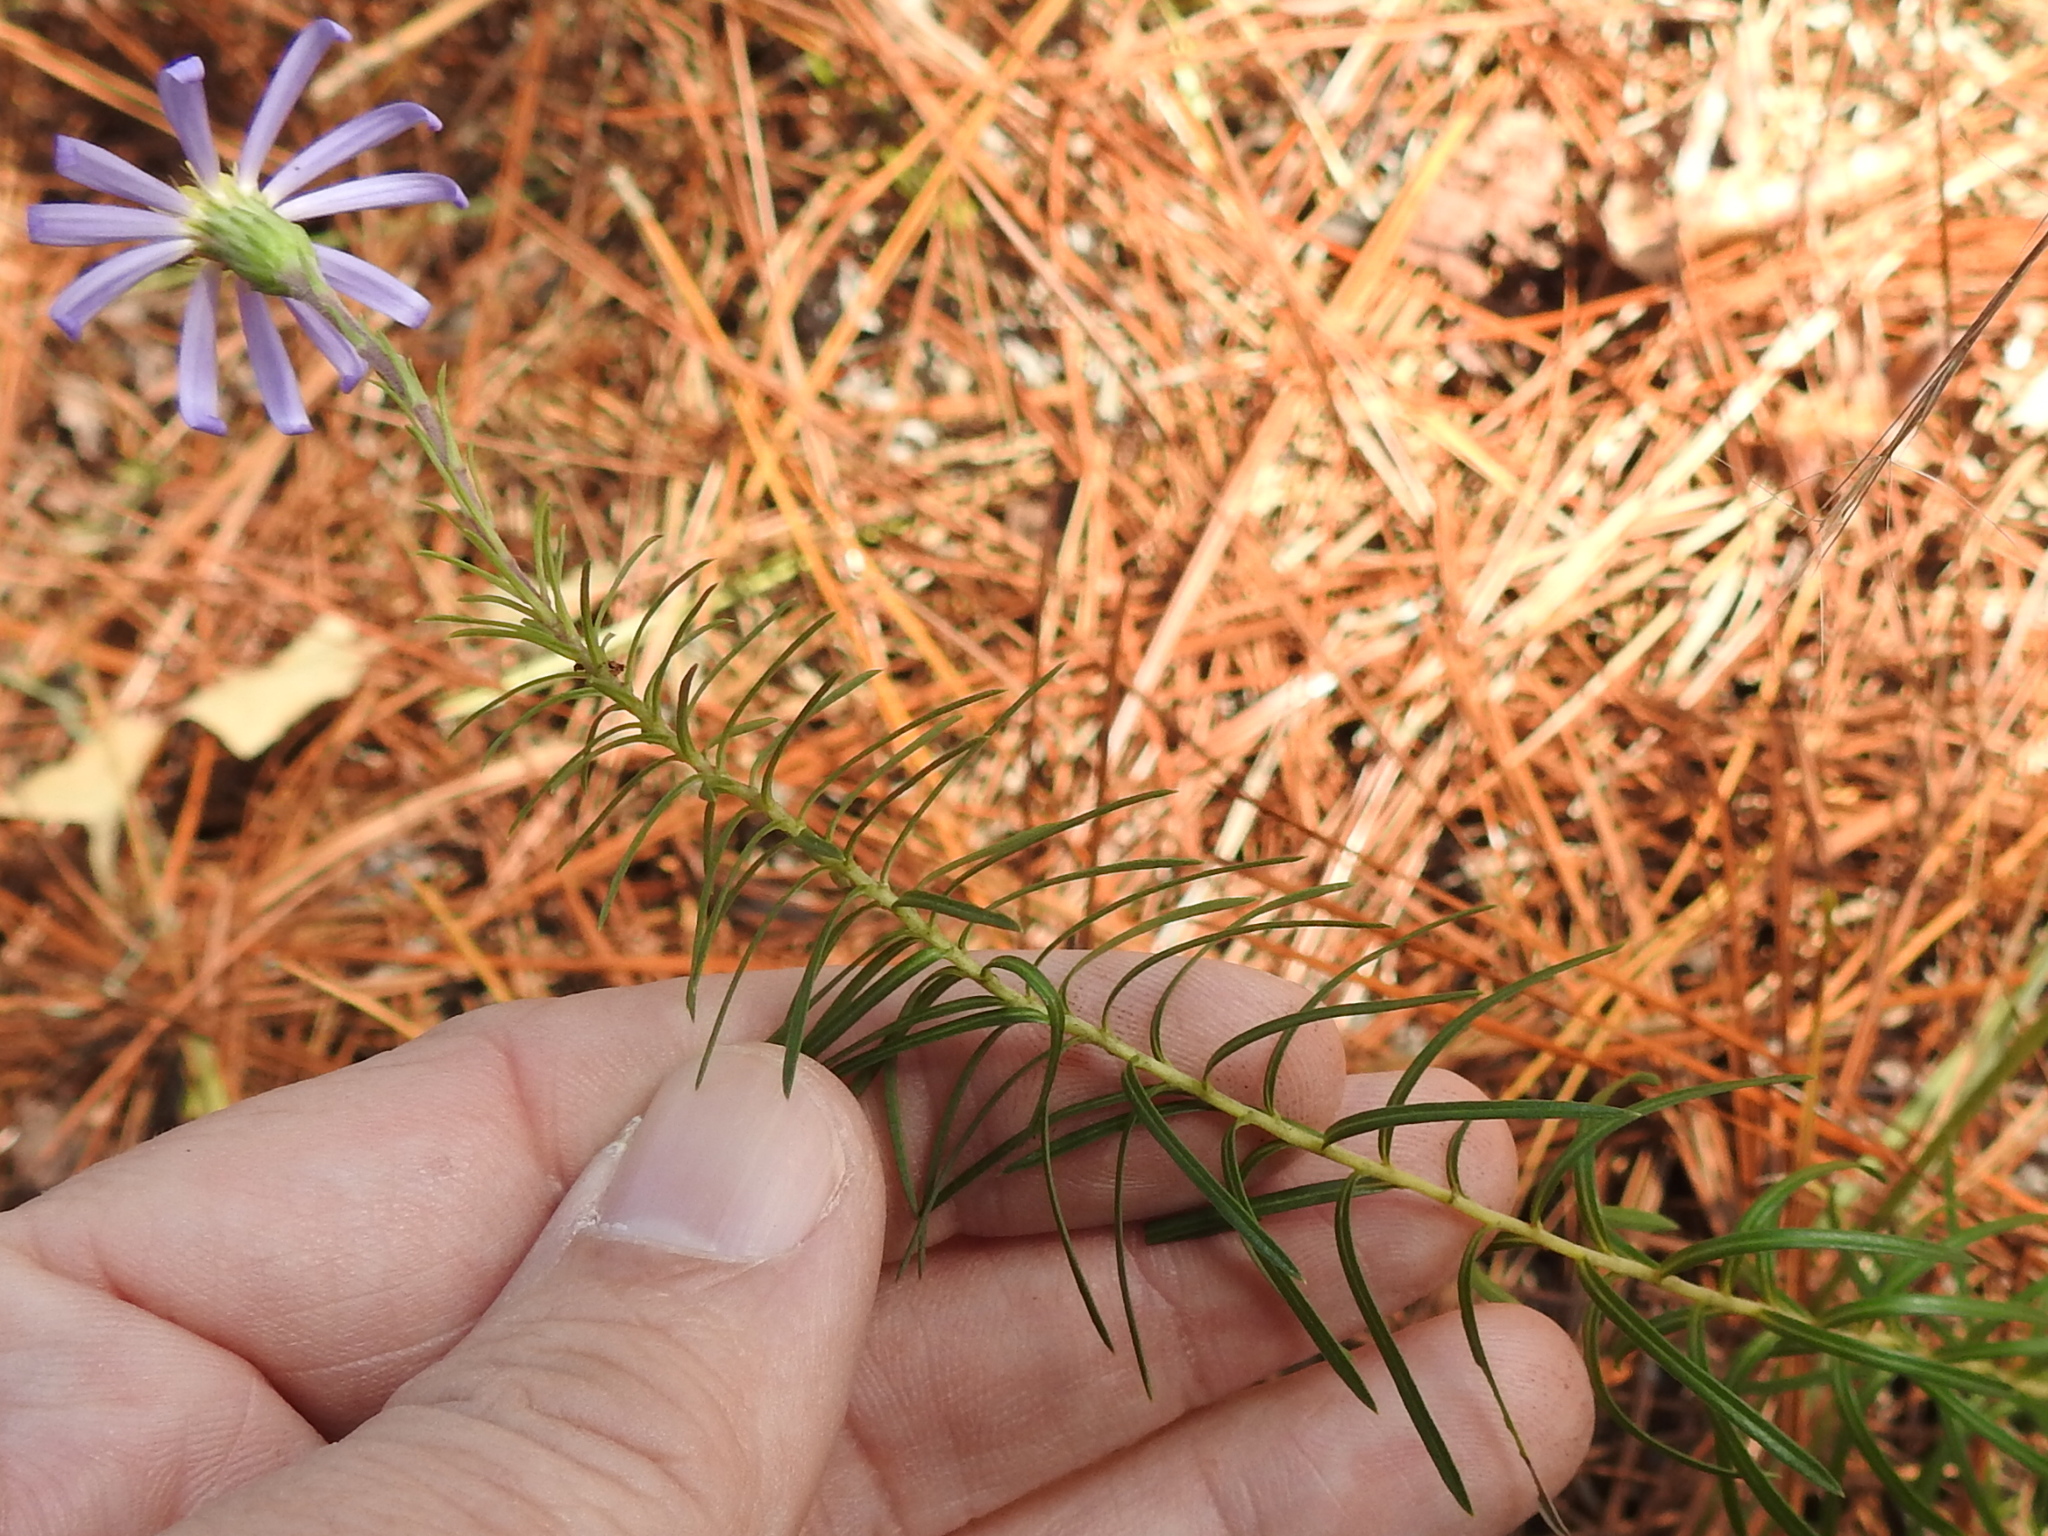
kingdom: Plantae
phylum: Tracheophyta
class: Magnoliopsida
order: Asterales
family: Asteraceae
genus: Ionactis
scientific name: Ionactis linariifolia
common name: Flax-leaf aster
